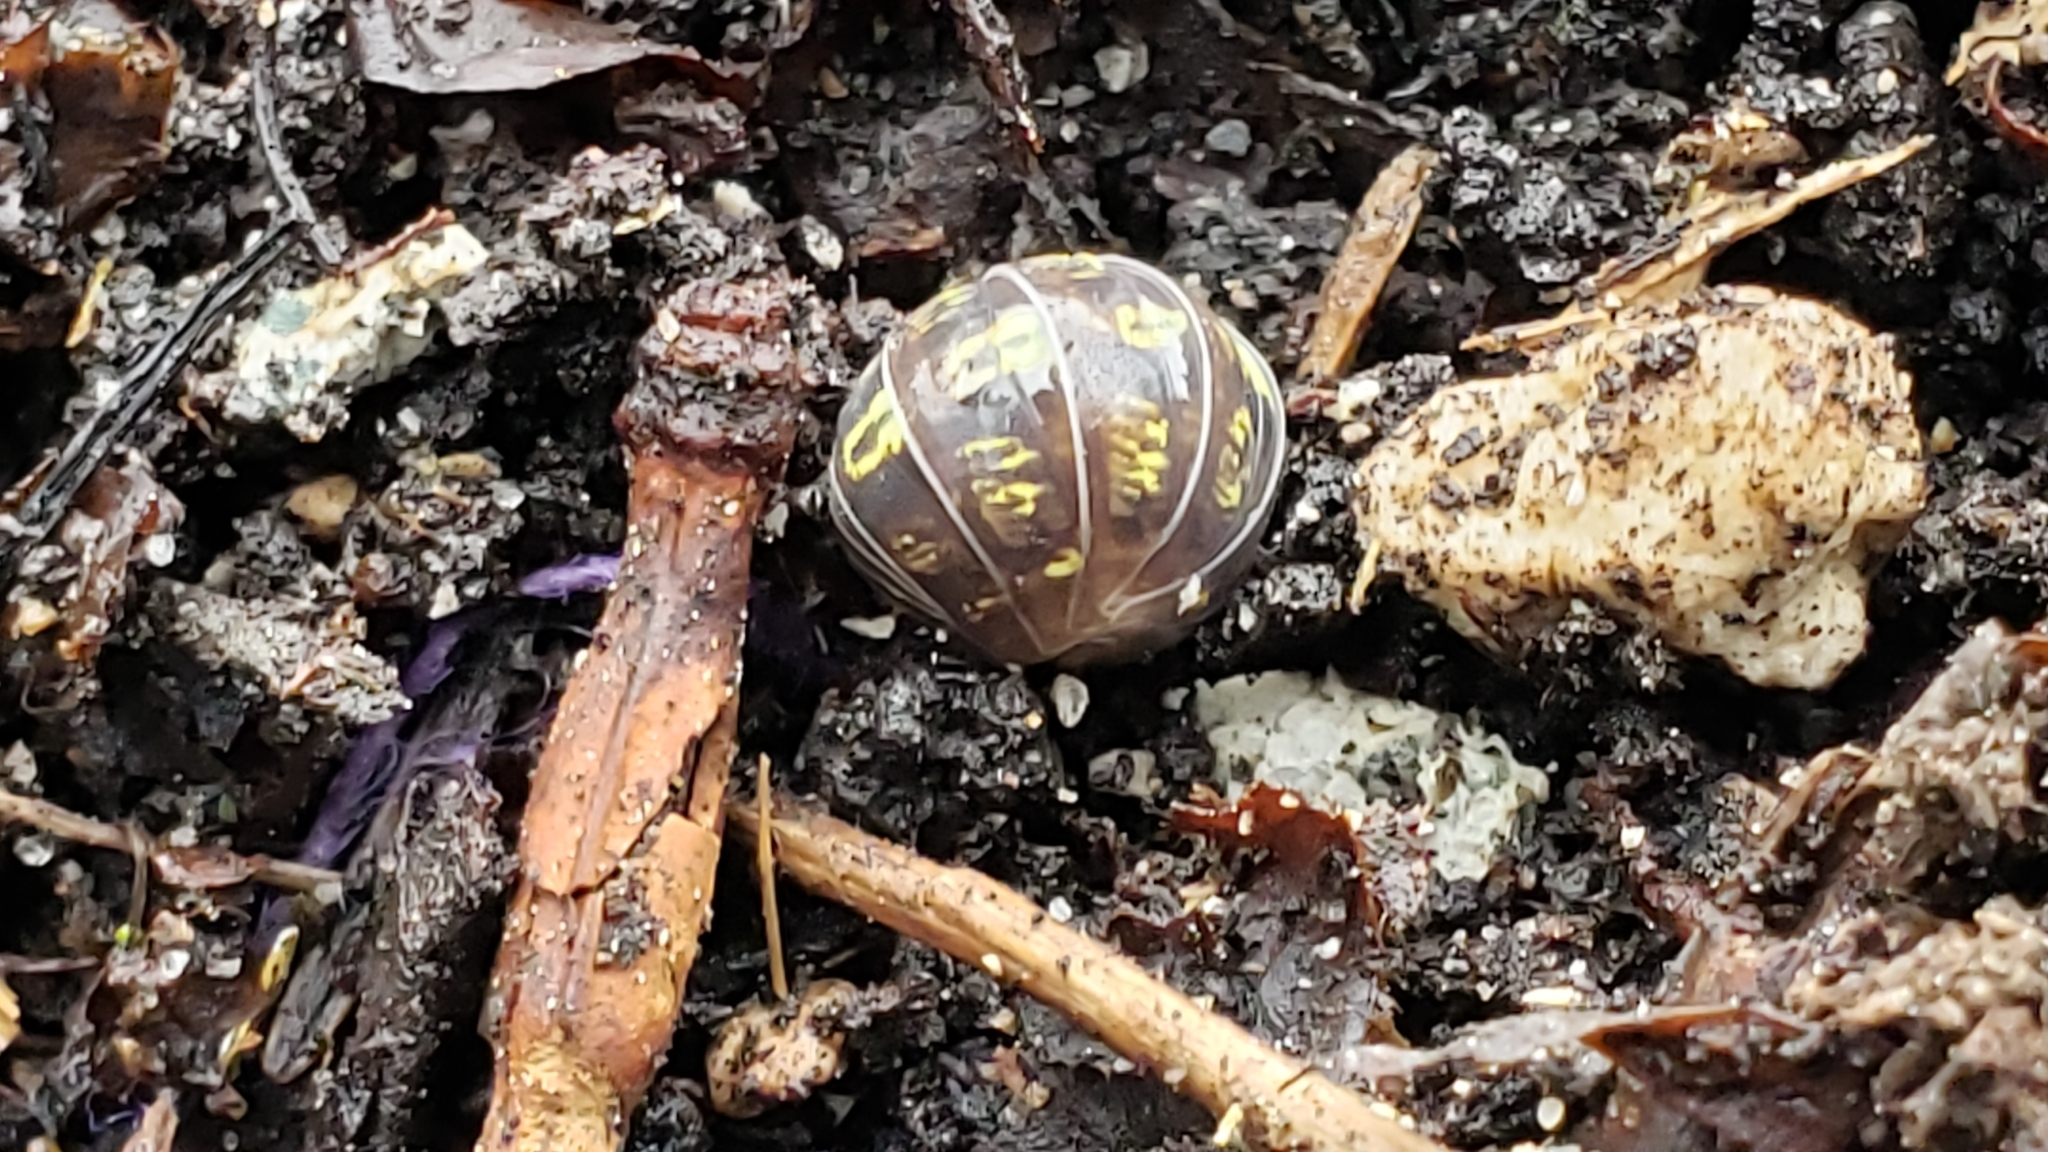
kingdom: Animalia
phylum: Arthropoda
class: Malacostraca
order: Isopoda
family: Armadillidiidae
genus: Armadillidium
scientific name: Armadillidium vulgare
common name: Common pill woodlouse
